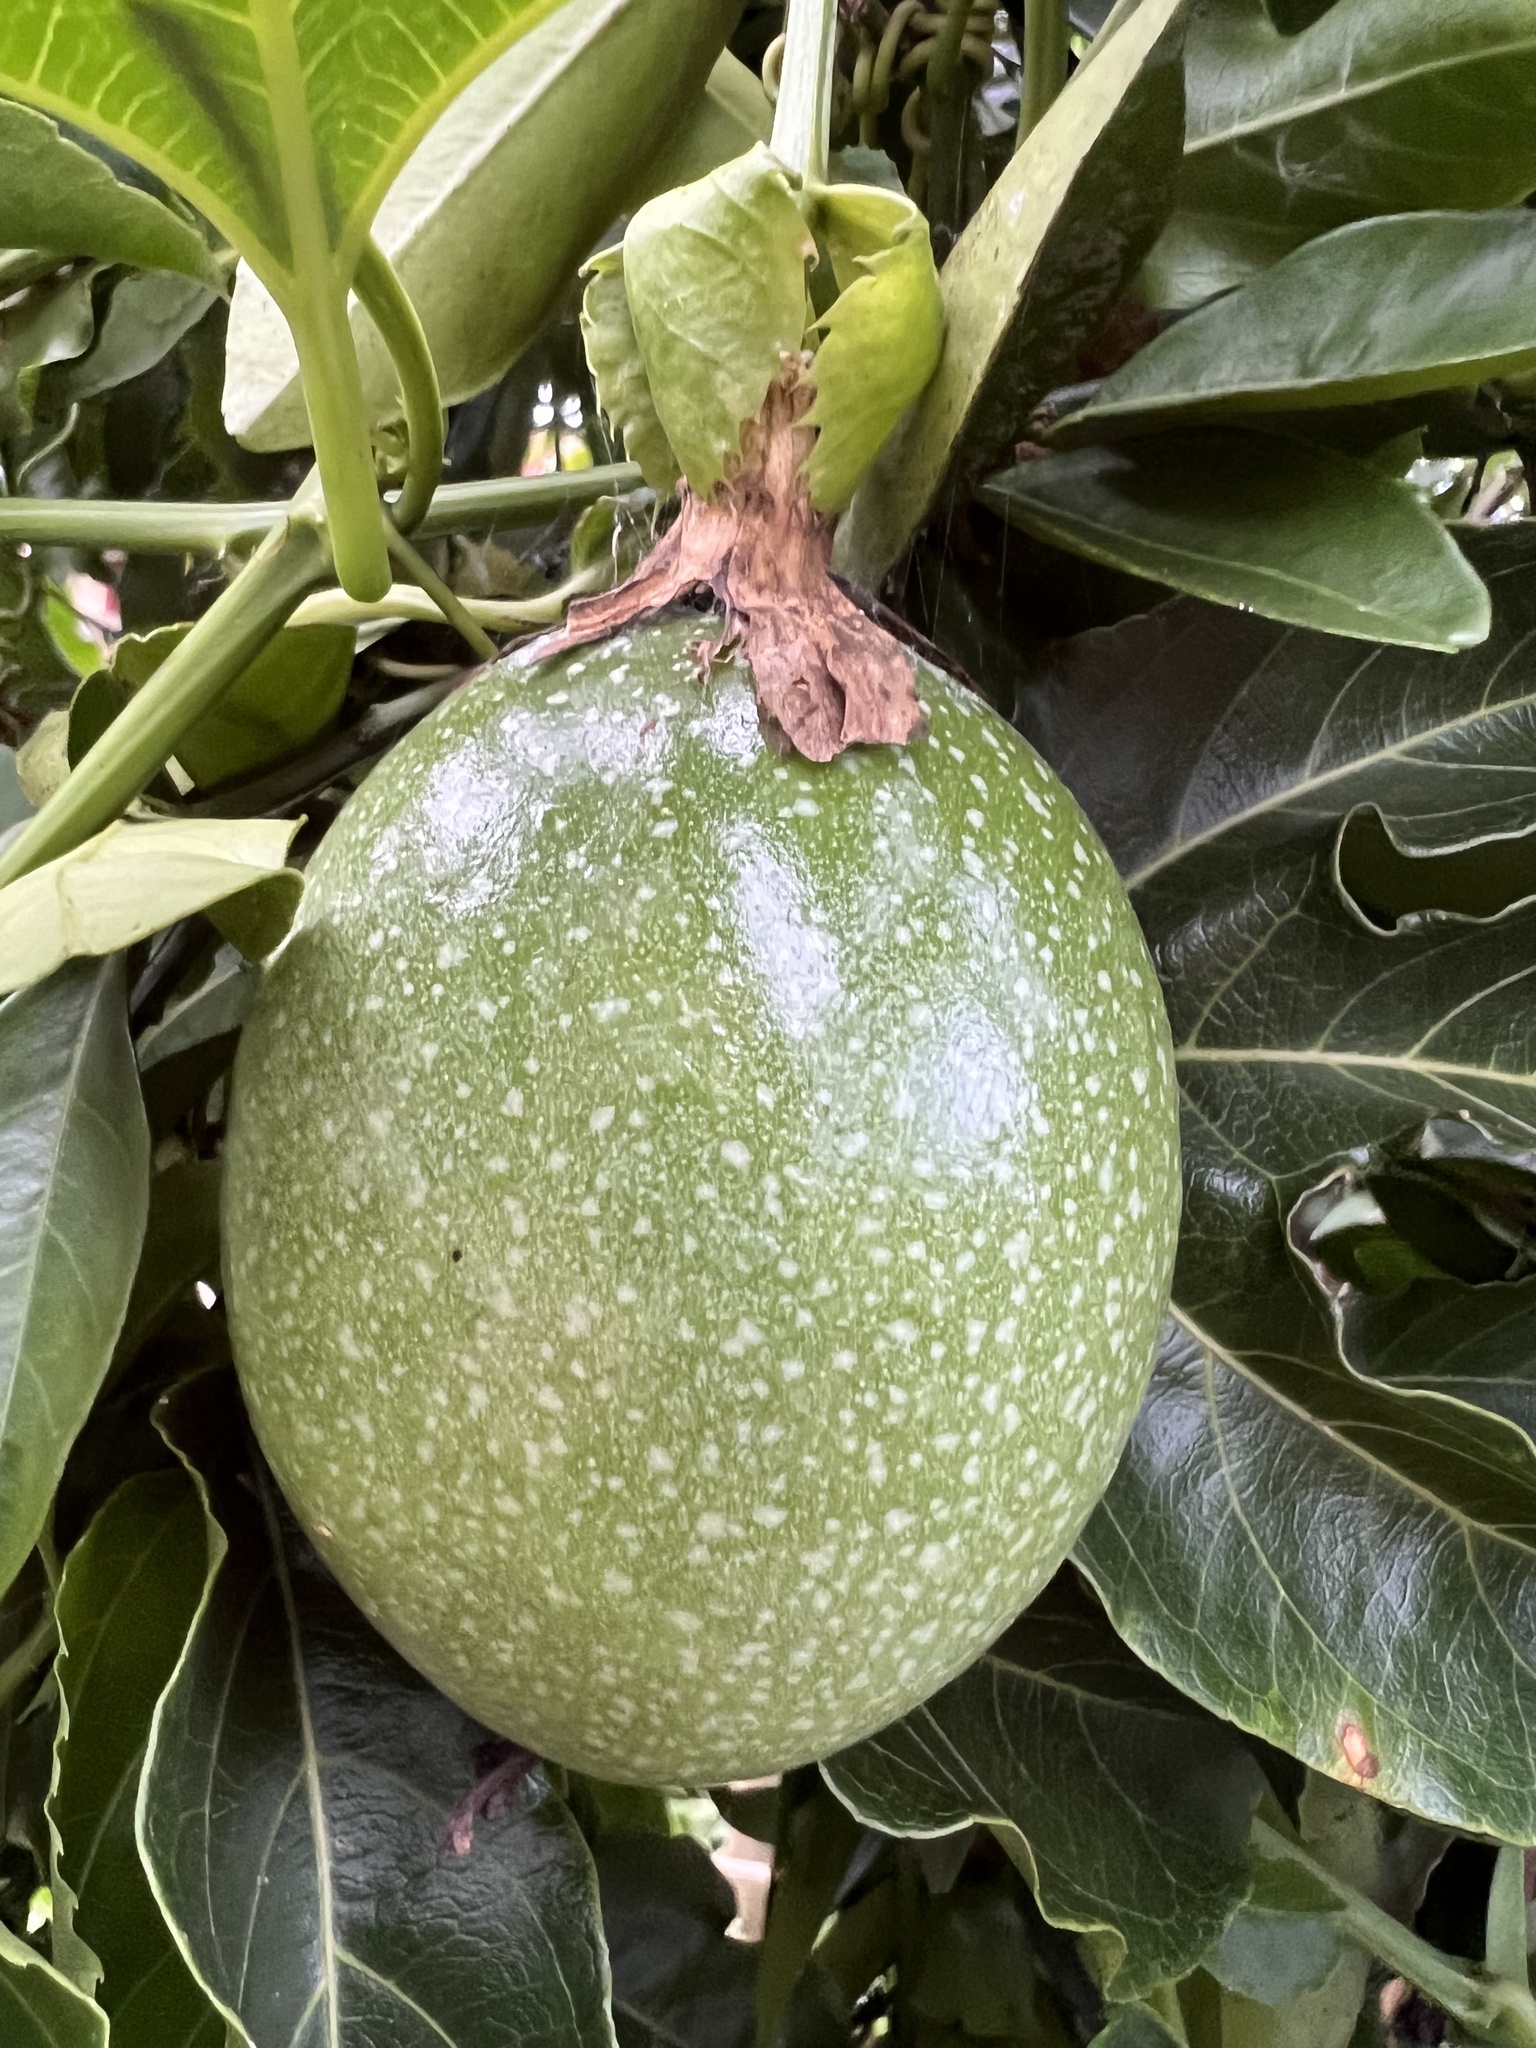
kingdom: Plantae
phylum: Tracheophyta
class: Magnoliopsida
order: Malpighiales
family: Passifloraceae
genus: Passiflora
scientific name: Passiflora edulis
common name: Purple granadilla
